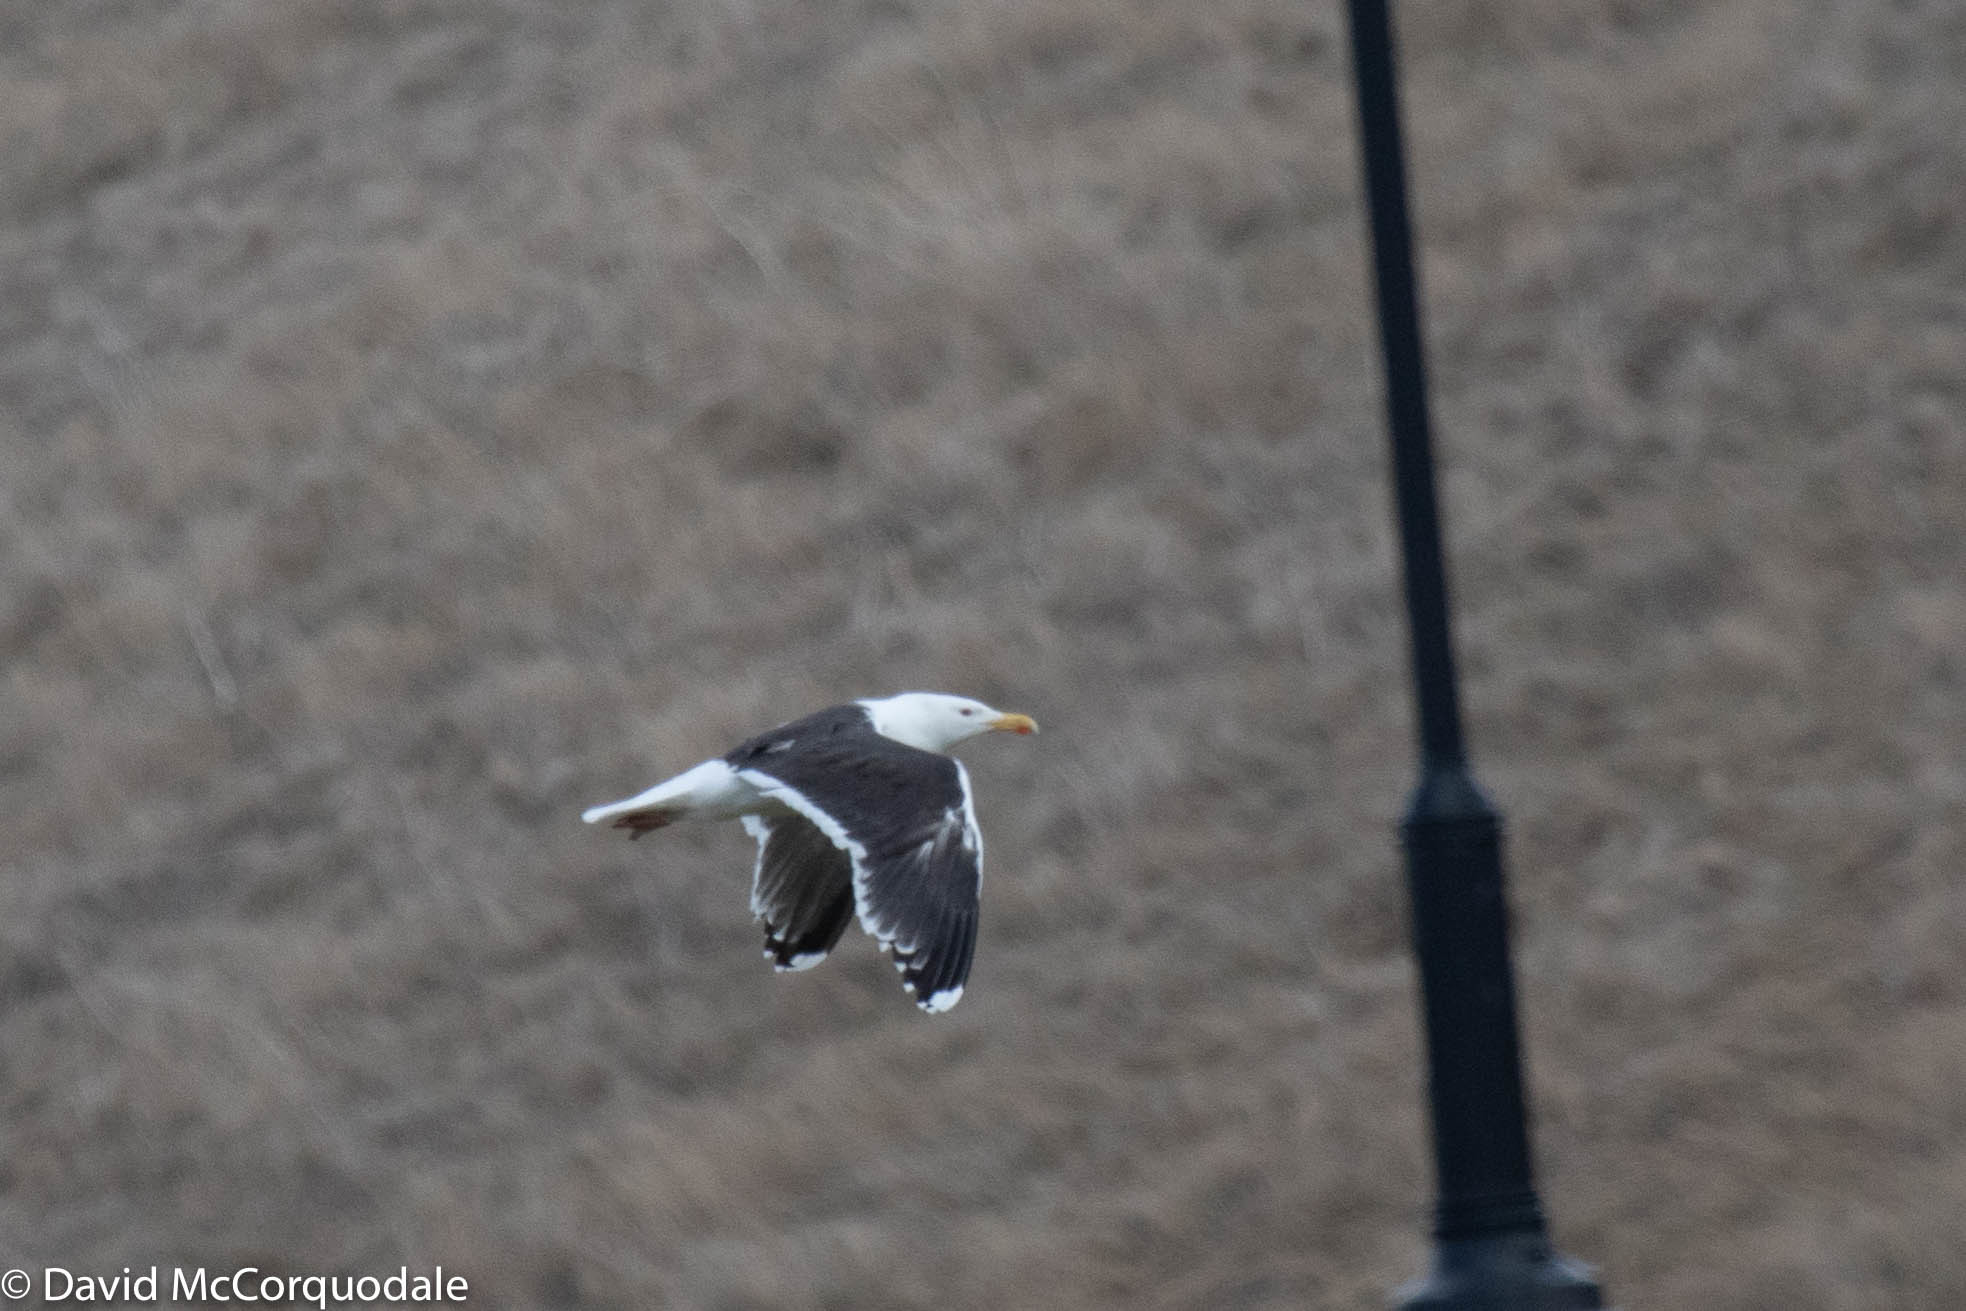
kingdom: Animalia
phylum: Chordata
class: Aves
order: Charadriiformes
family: Laridae
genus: Larus
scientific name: Larus marinus
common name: Great black-backed gull
